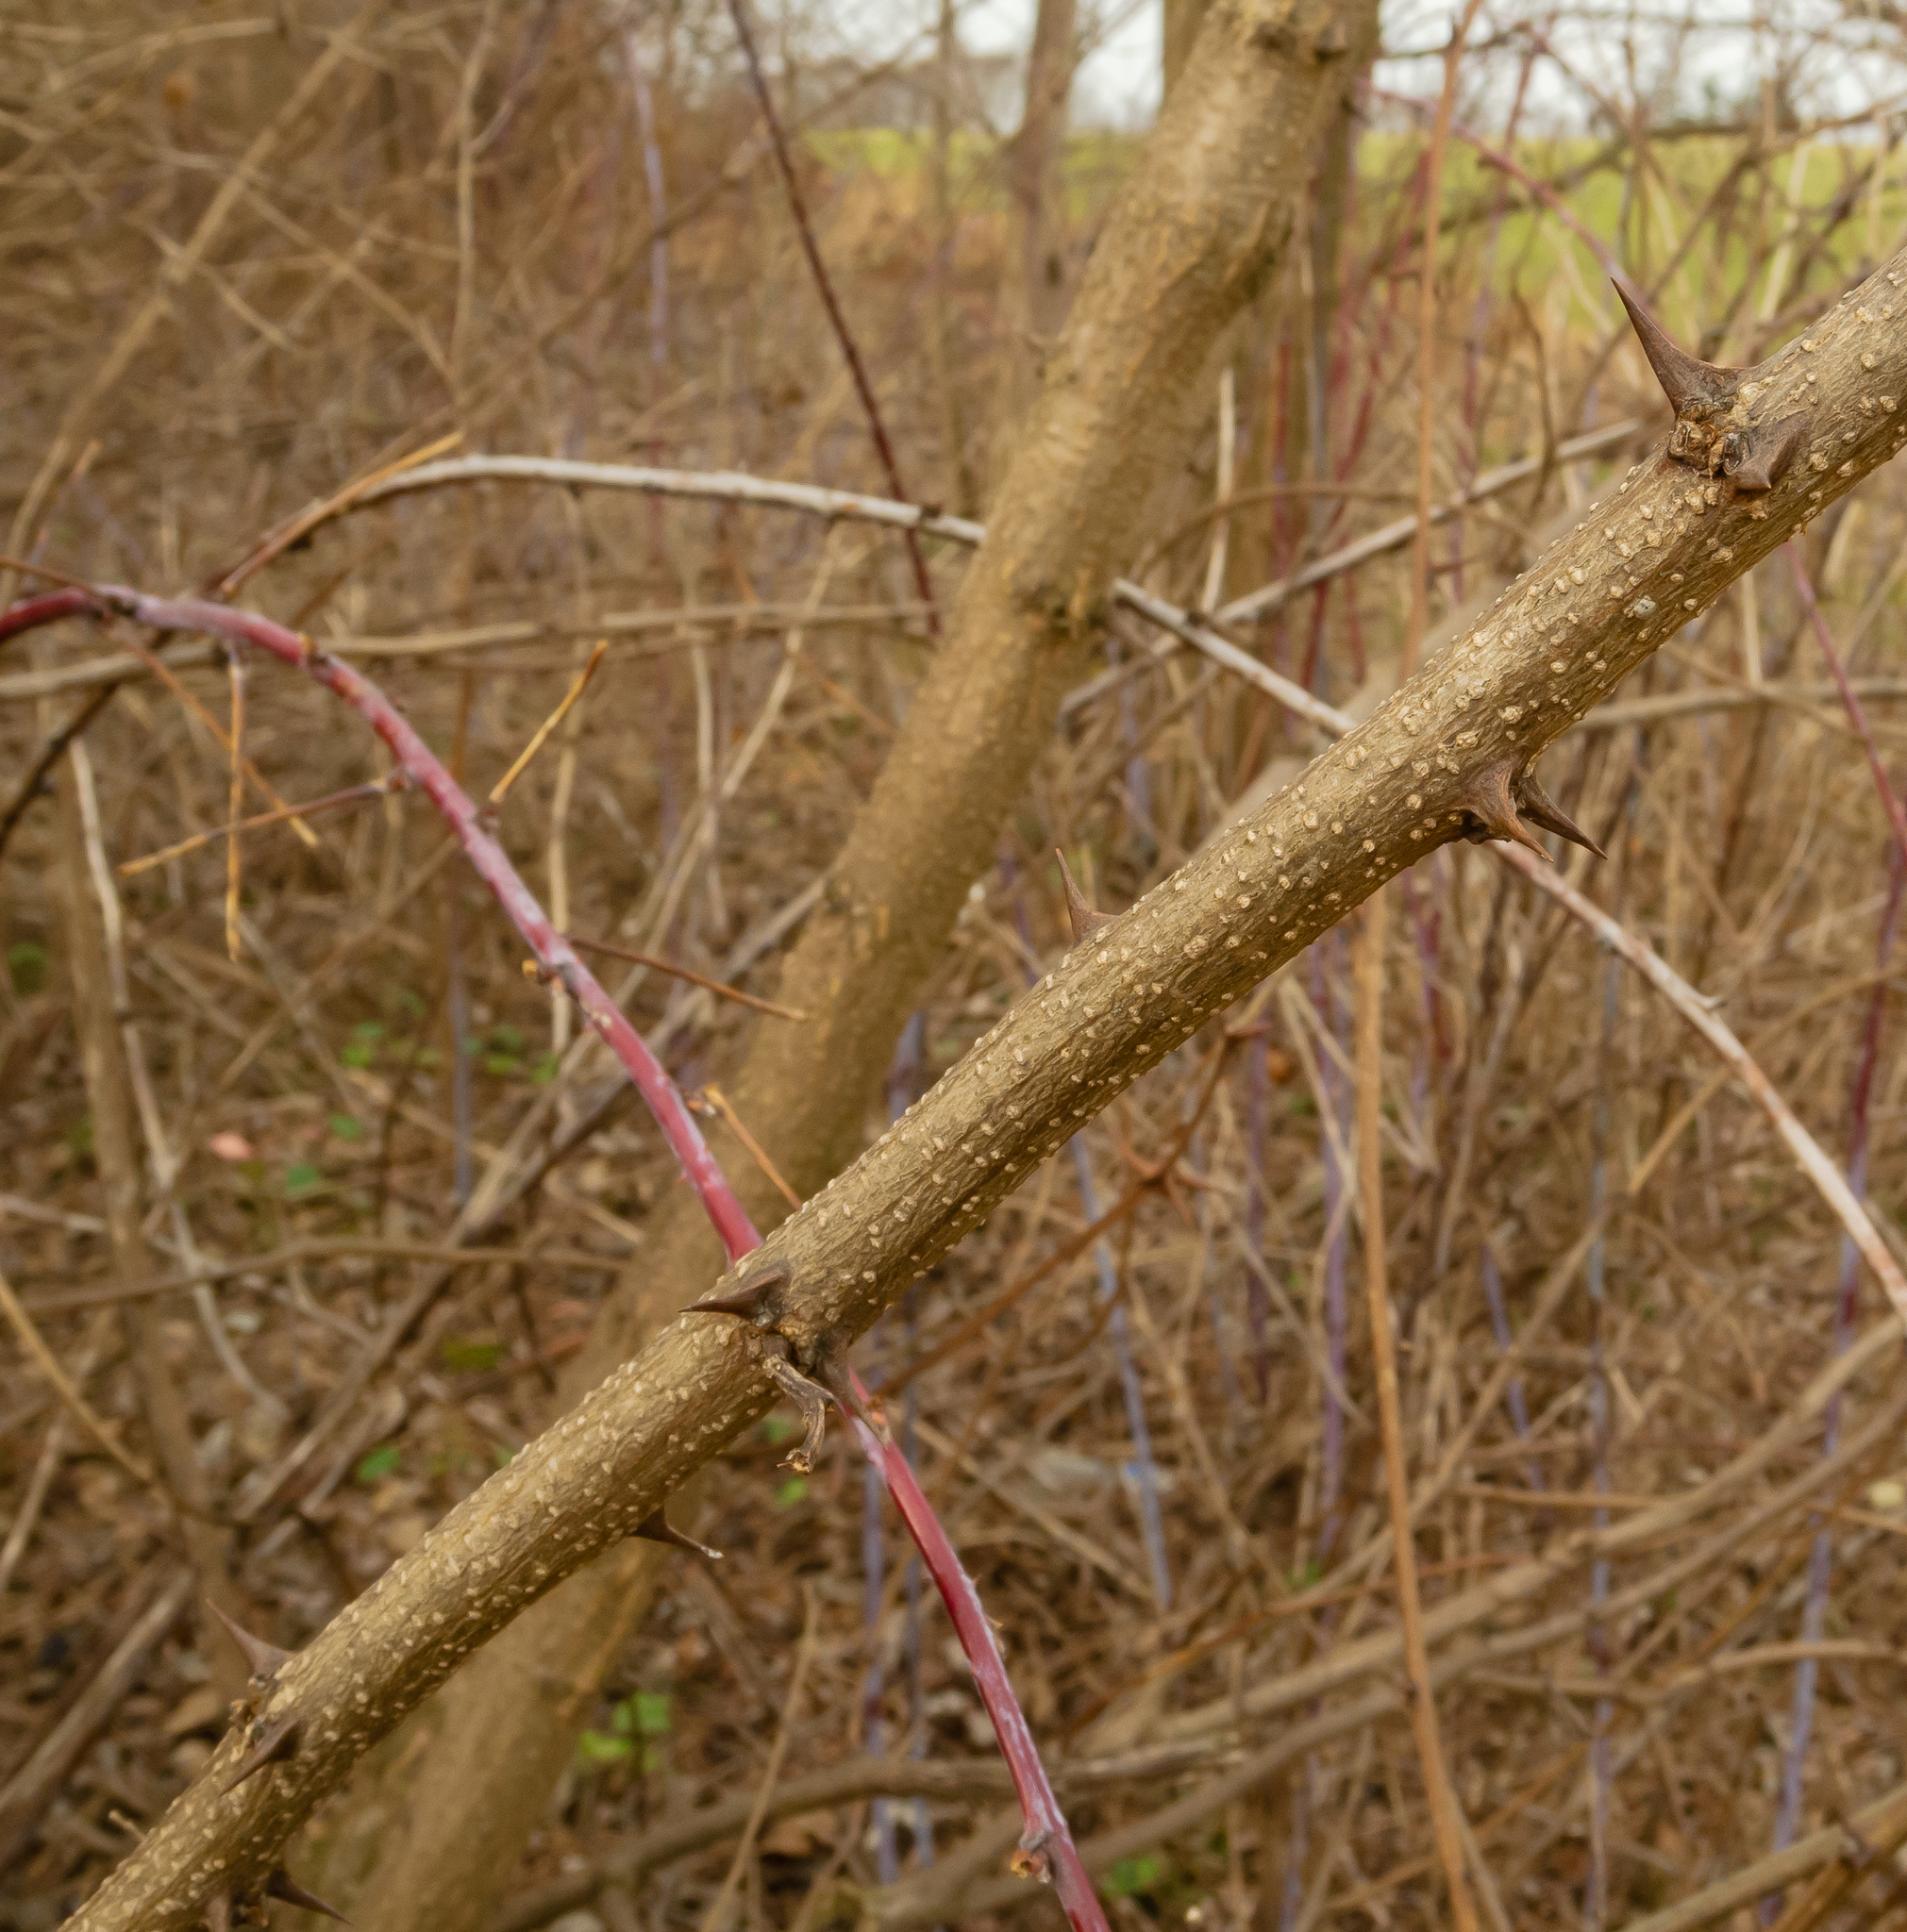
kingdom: Plantae
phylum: Tracheophyta
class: Magnoliopsida
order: Fabales
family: Fabaceae
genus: Robinia
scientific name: Robinia pseudoacacia
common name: Black locust
